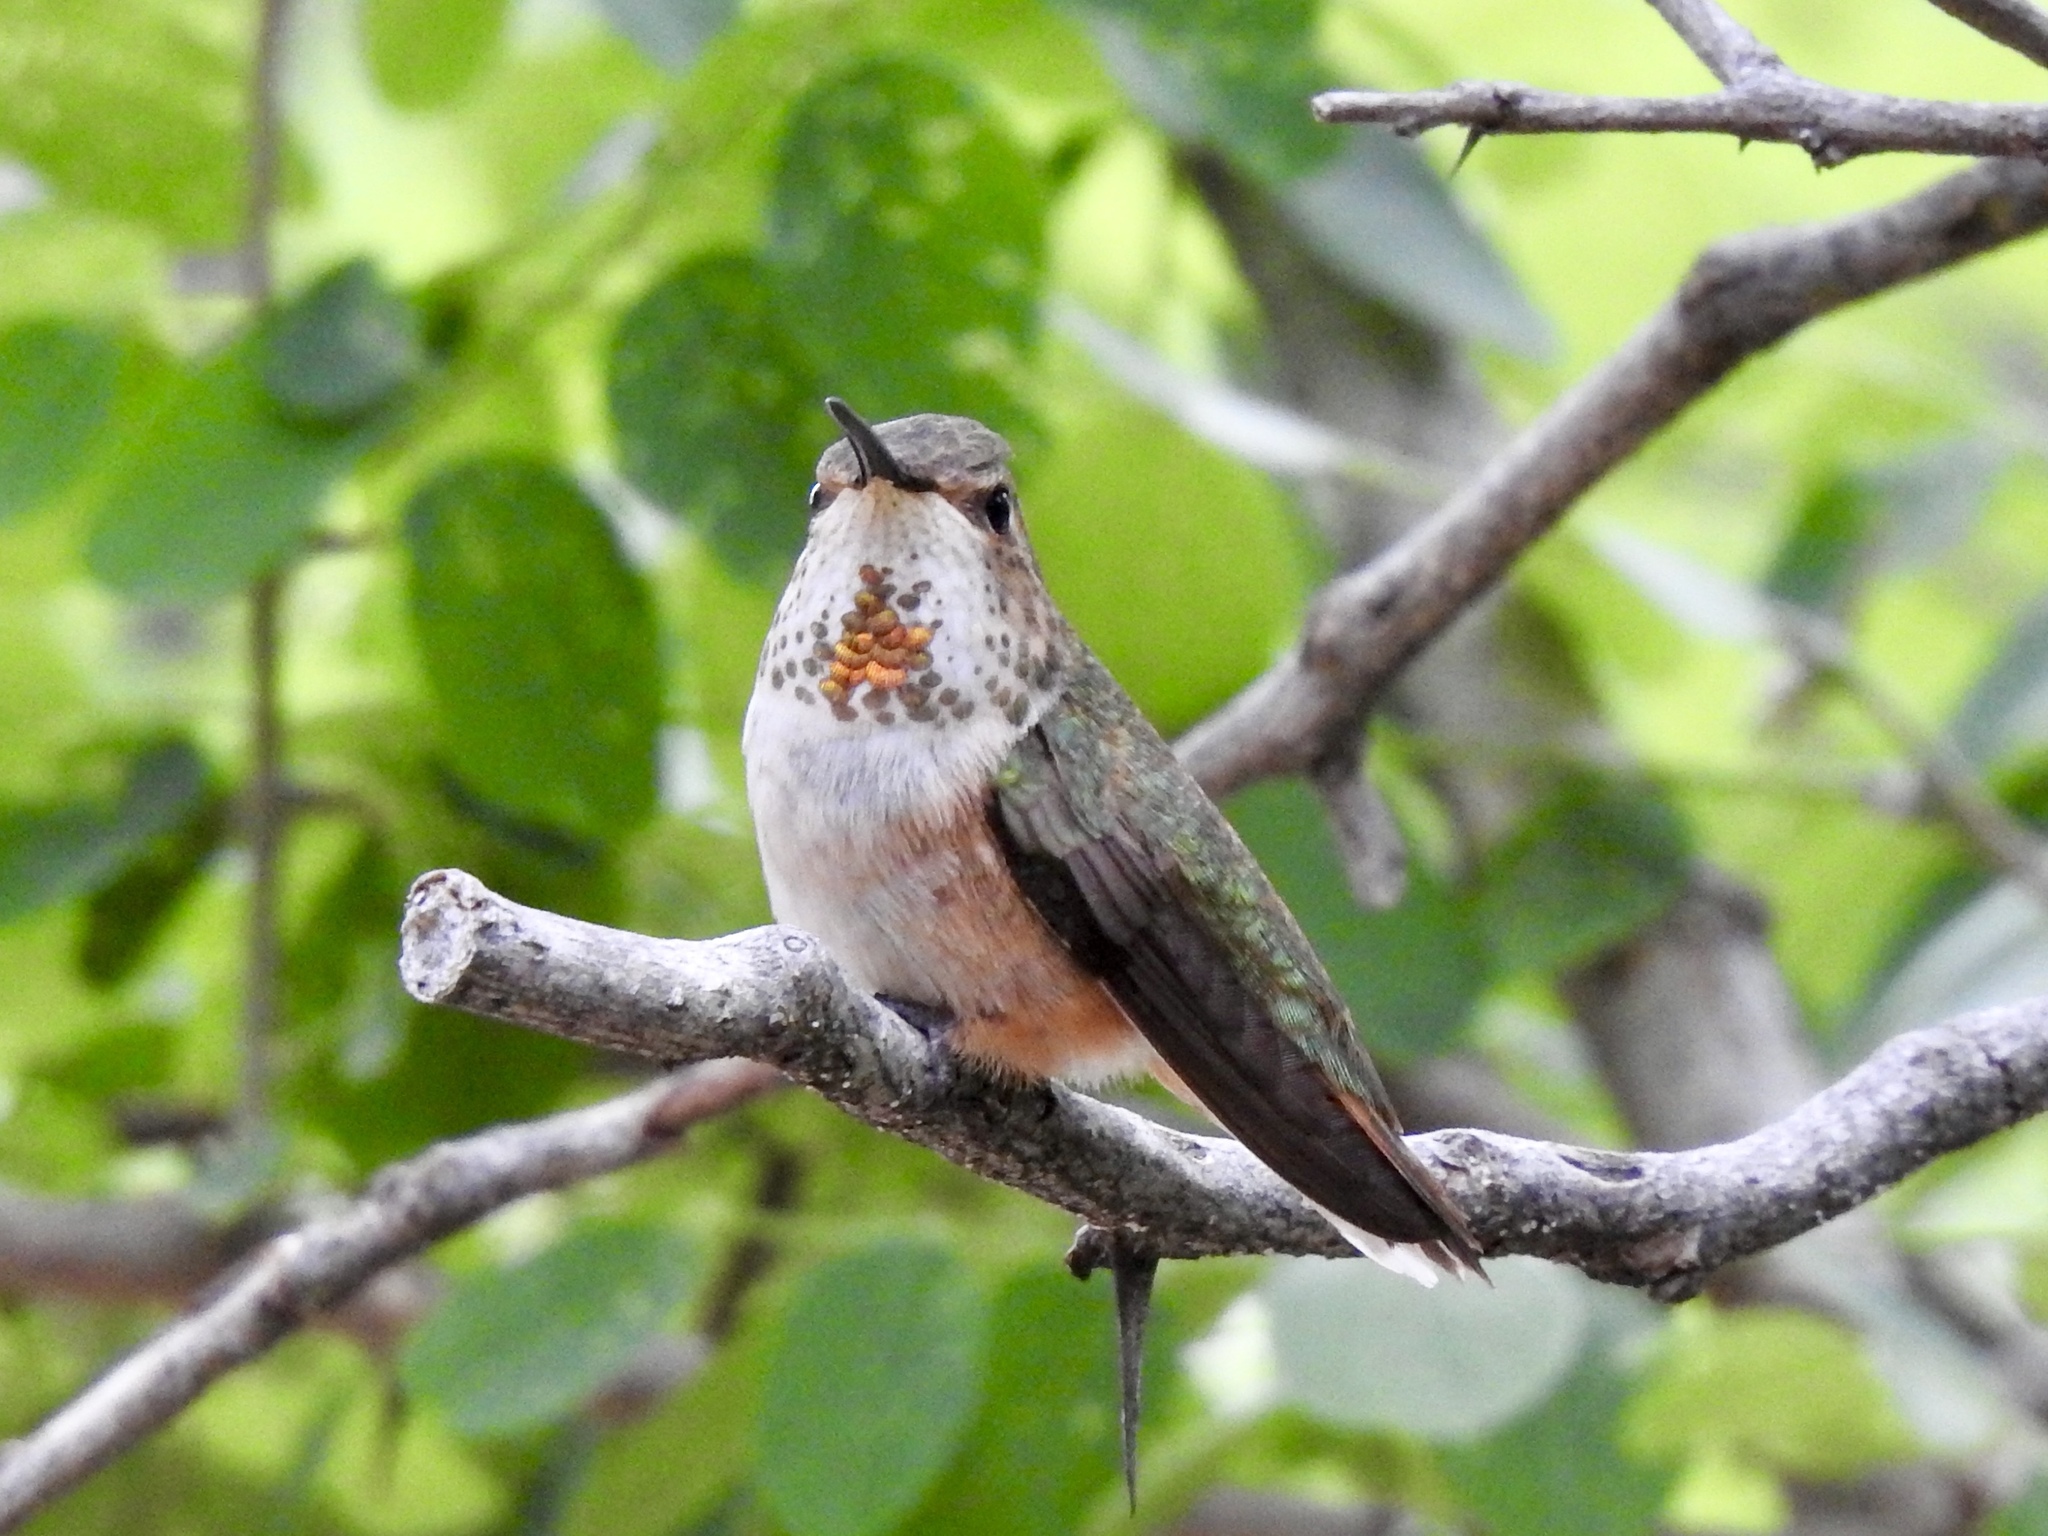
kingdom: Animalia
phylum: Chordata
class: Aves
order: Apodiformes
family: Trochilidae
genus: Selasphorus
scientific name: Selasphorus rufus
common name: Rufous hummingbird
